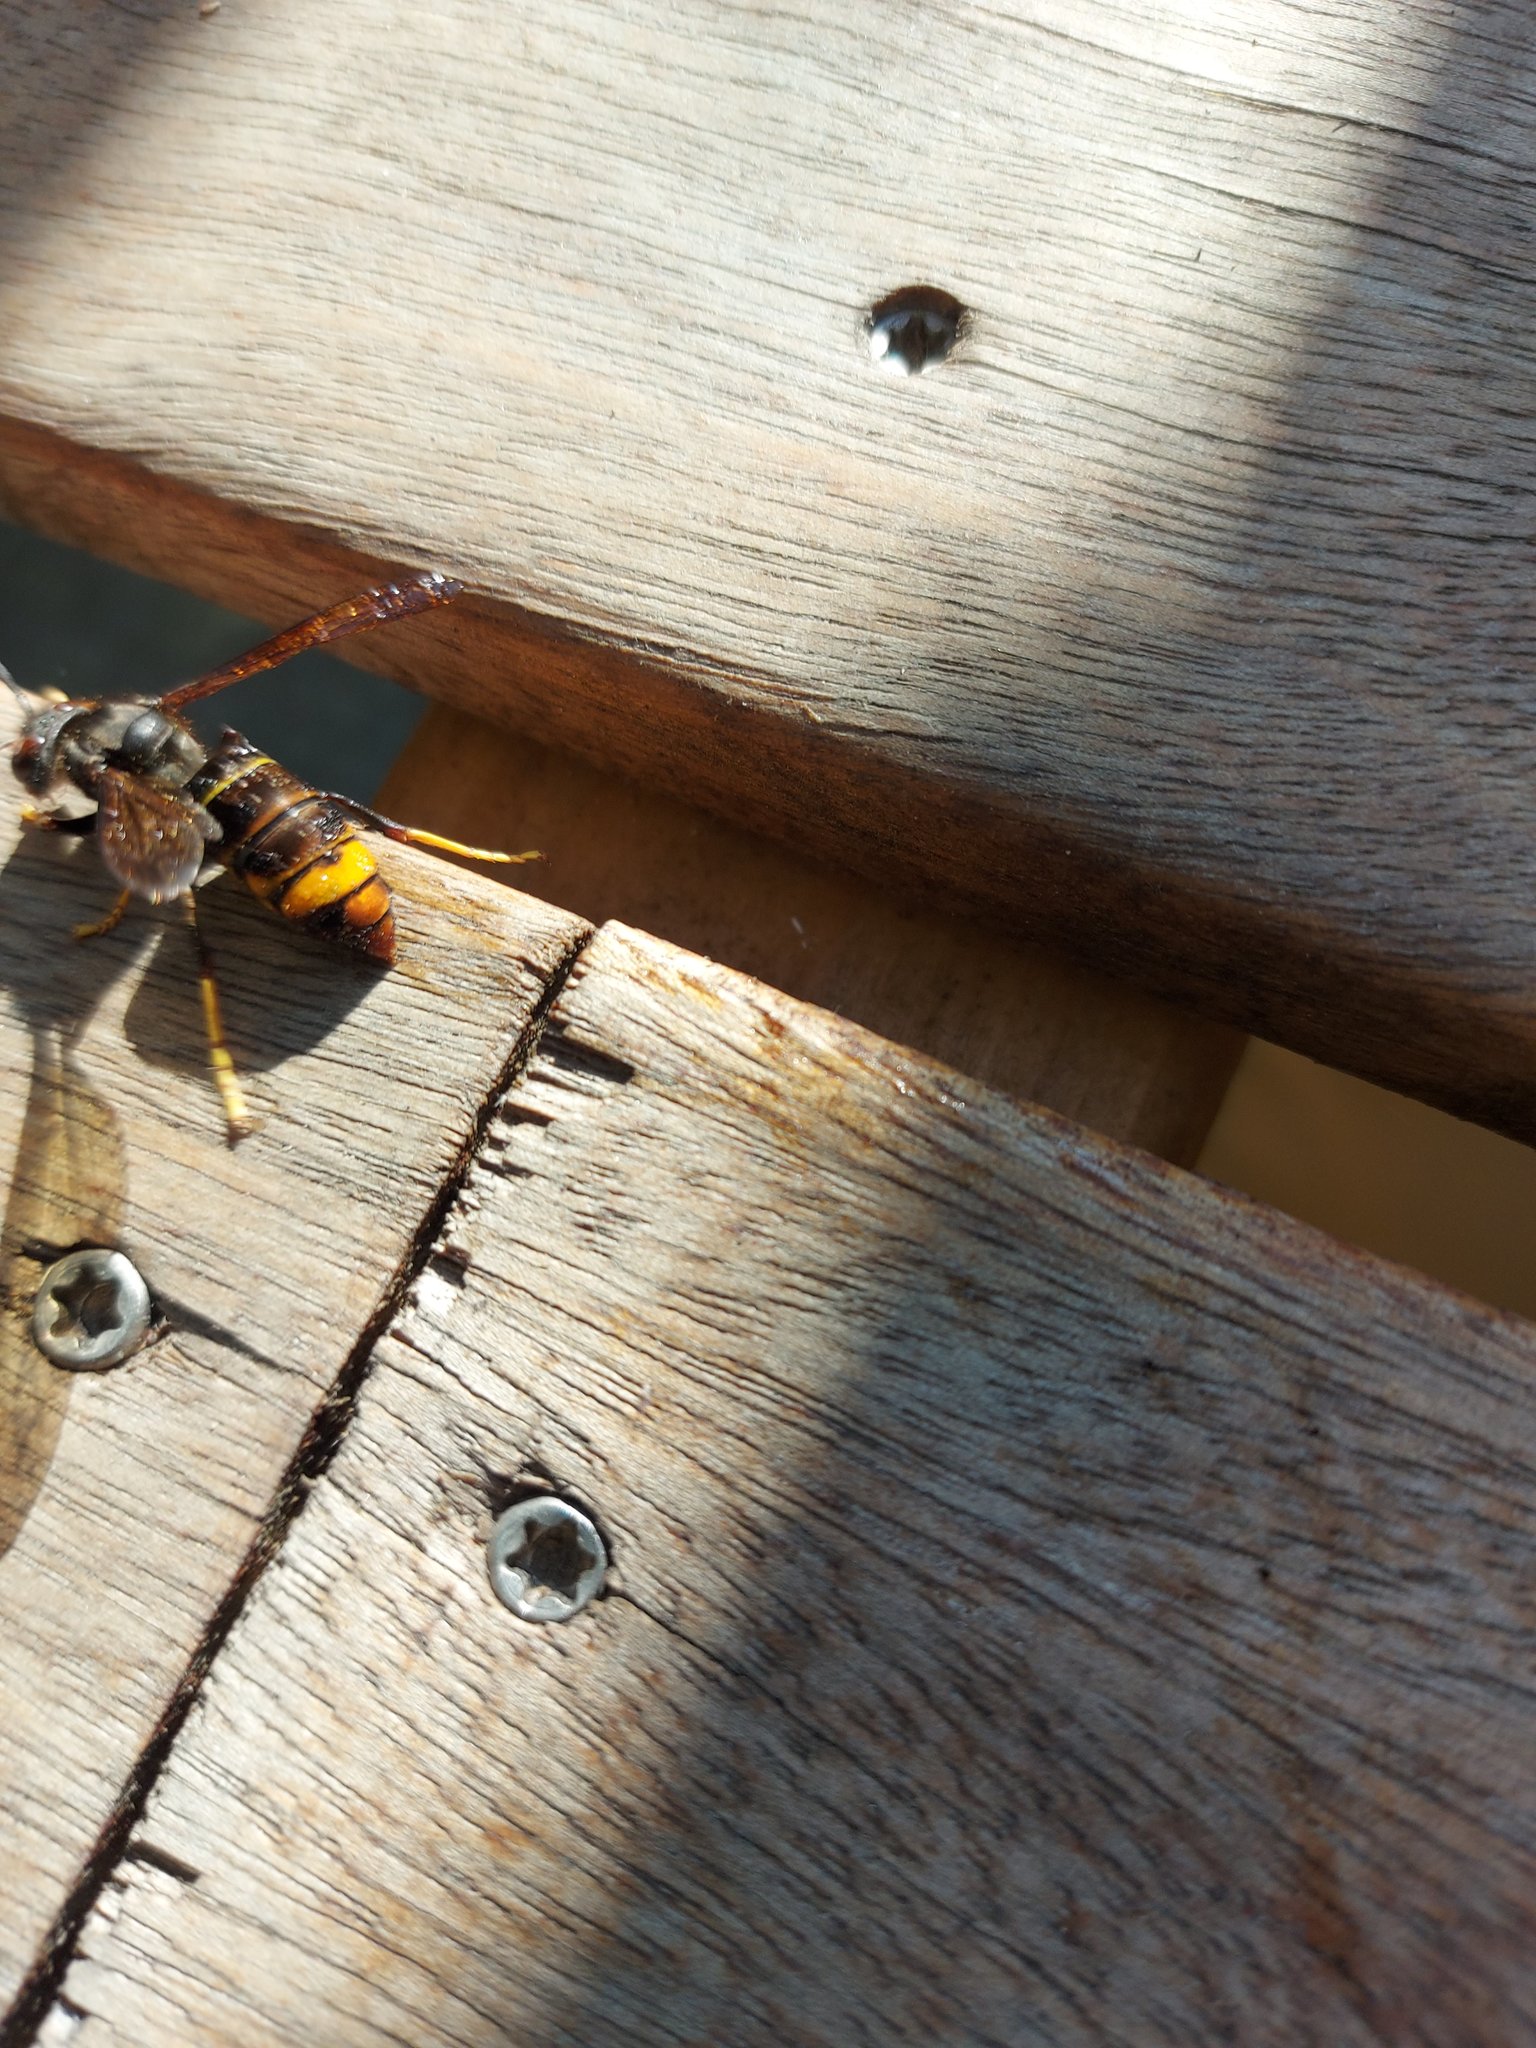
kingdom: Animalia
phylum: Arthropoda
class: Insecta
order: Hymenoptera
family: Vespidae
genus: Vespa
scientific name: Vespa velutina
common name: Asian hornet
